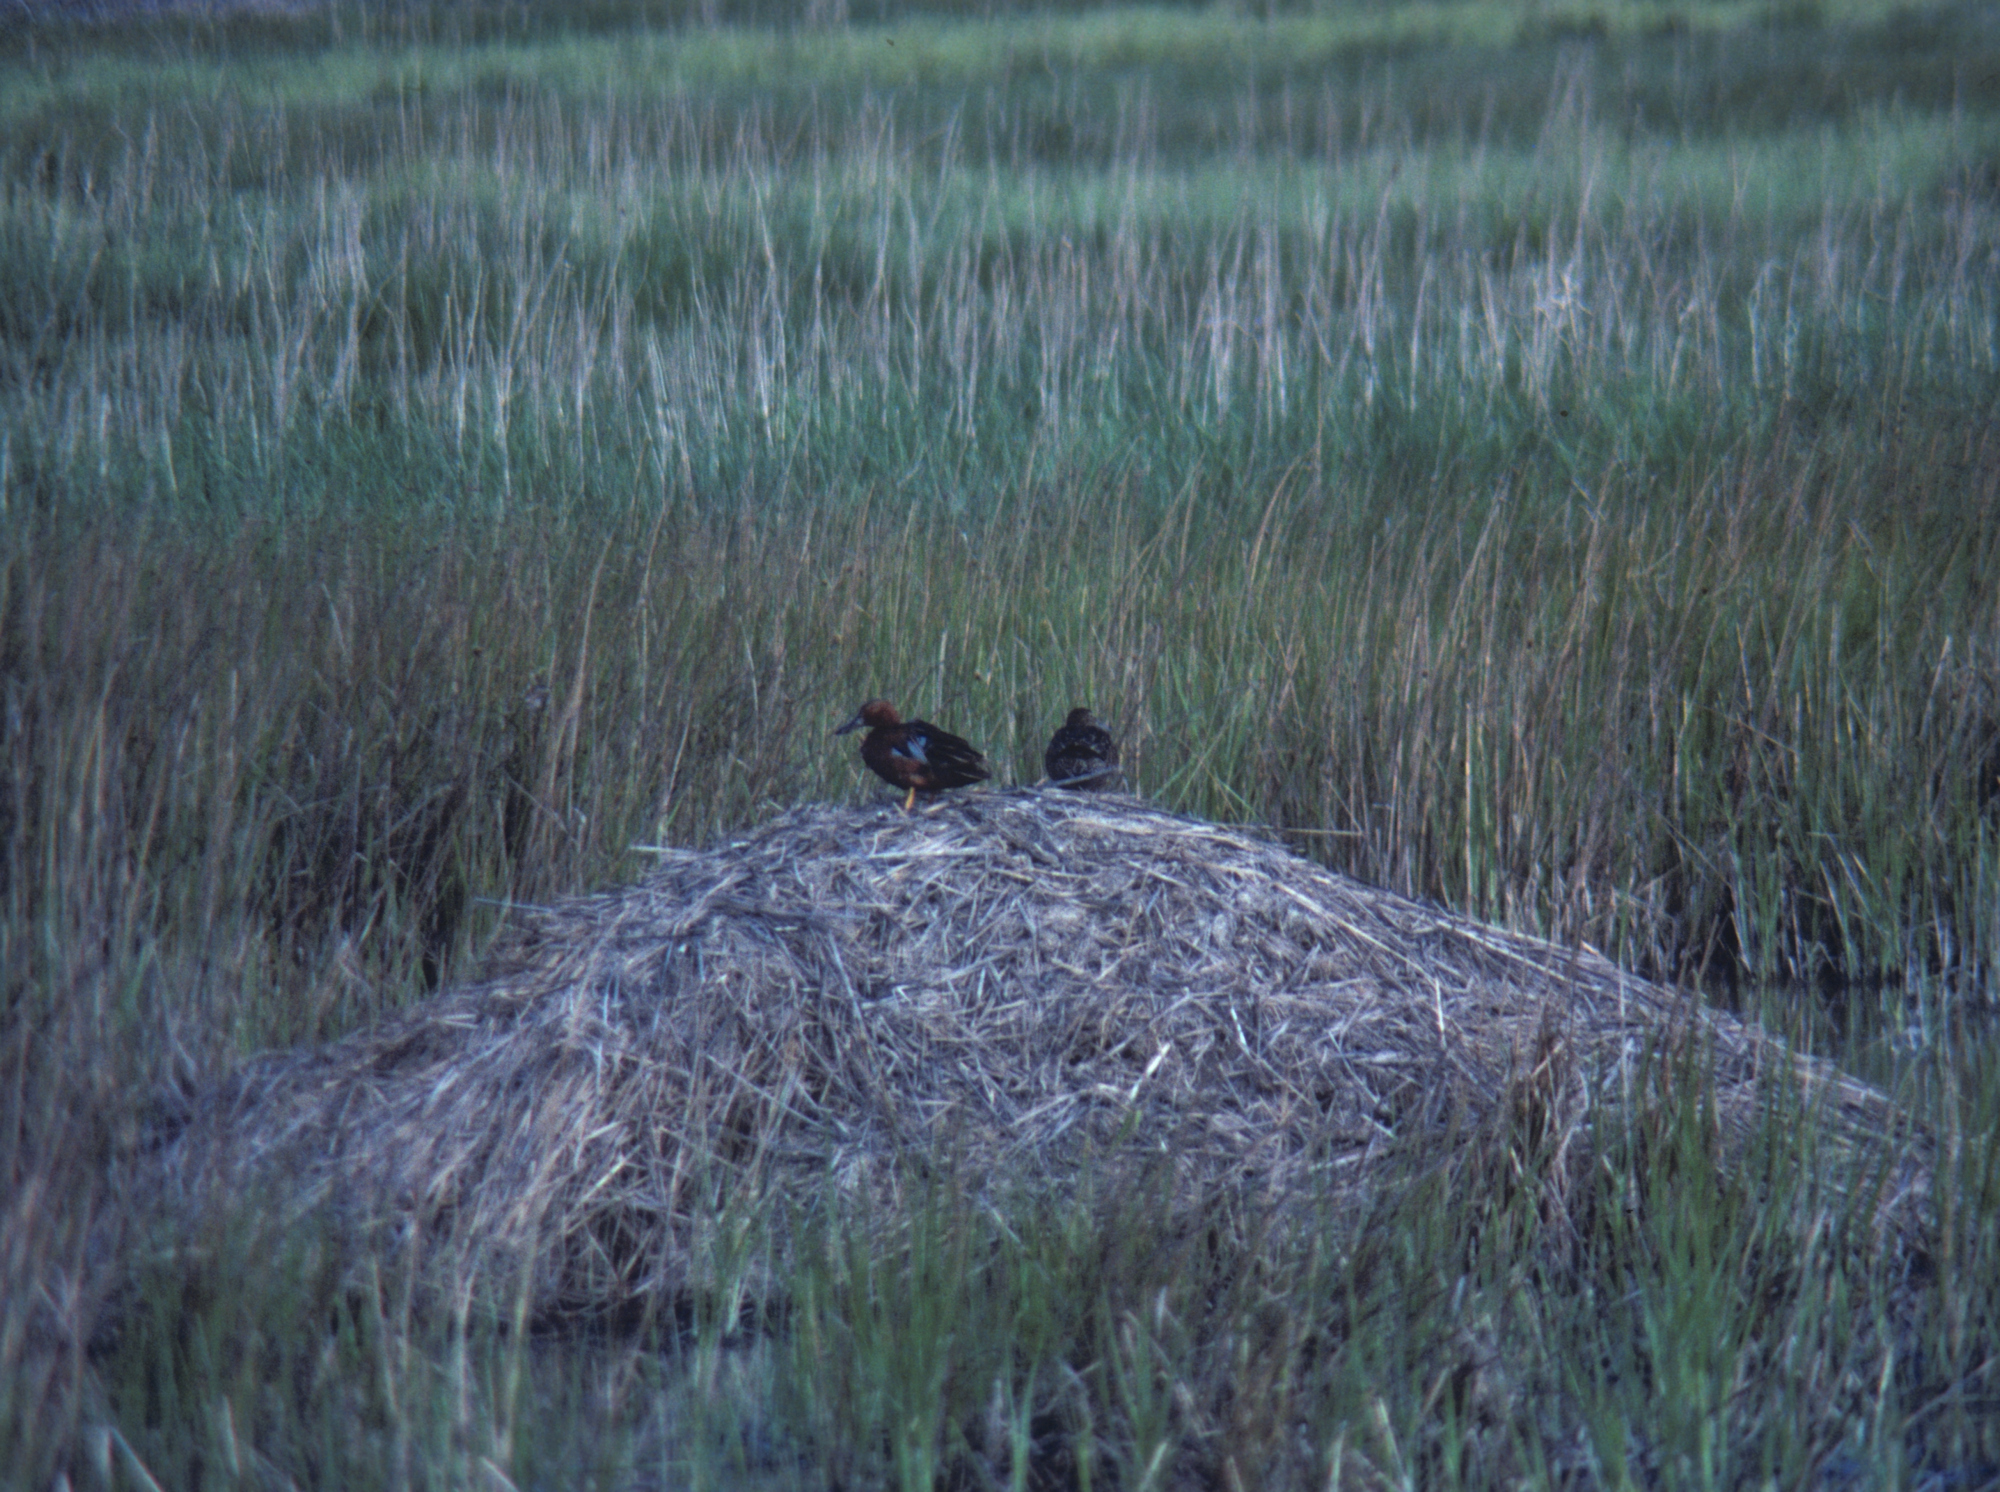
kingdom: Animalia
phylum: Chordata
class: Aves
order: Anseriformes
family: Anatidae
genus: Spatula
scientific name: Spatula cyanoptera
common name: Cinnamon teal
